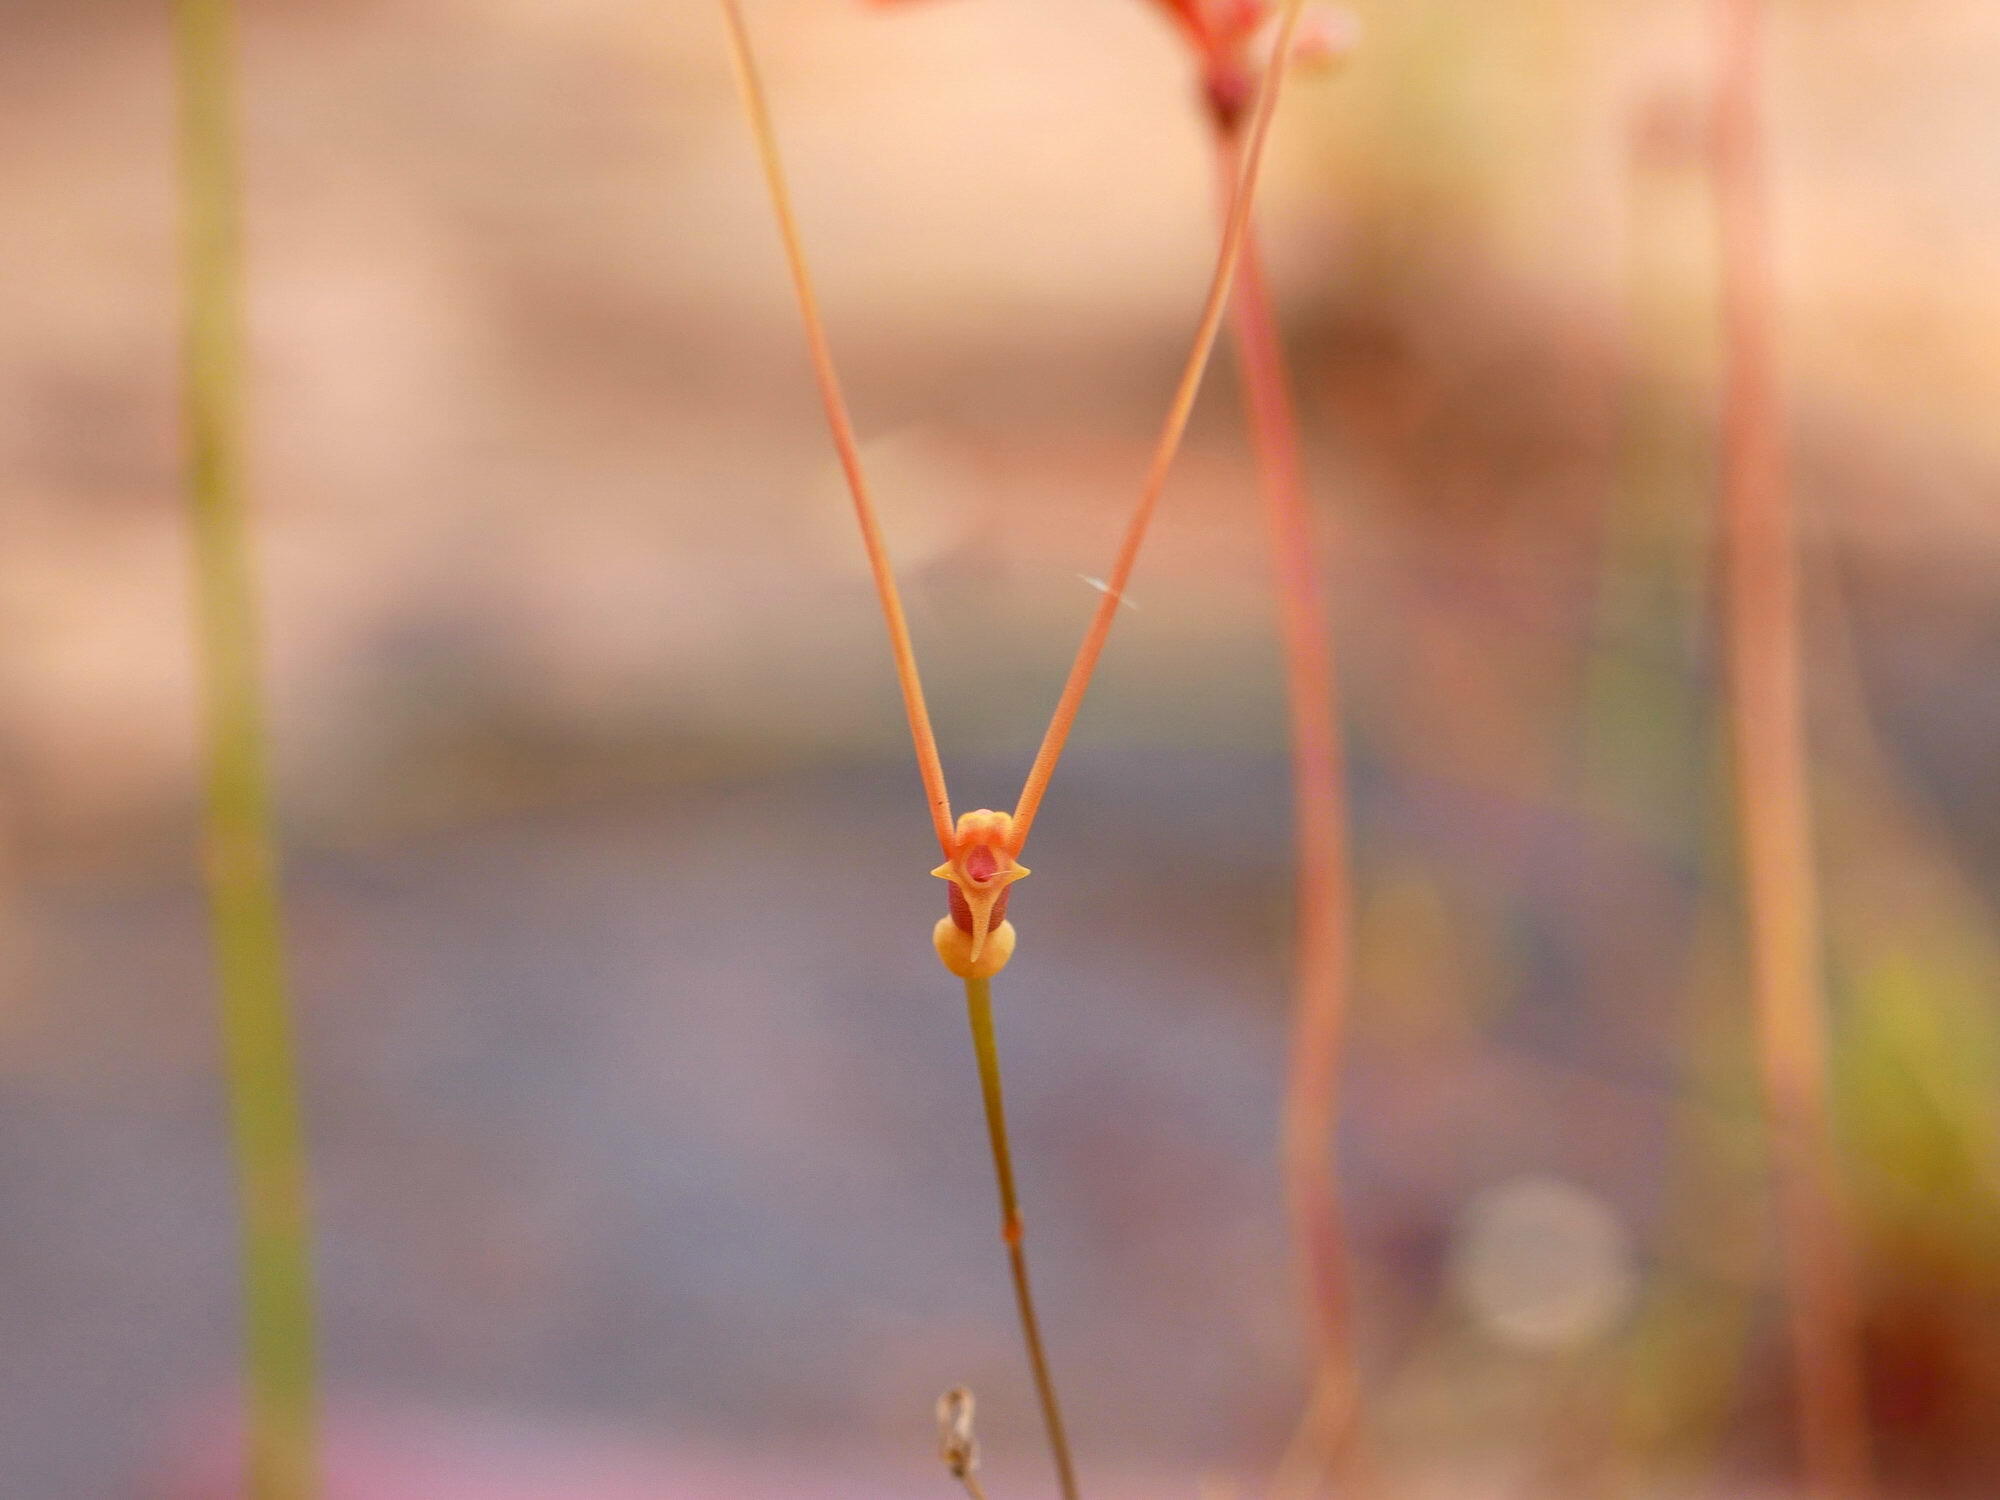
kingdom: Plantae
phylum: Tracheophyta
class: Magnoliopsida
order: Lamiales
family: Lentibulariaceae
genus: Utricularia
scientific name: Utricularia antennifera
